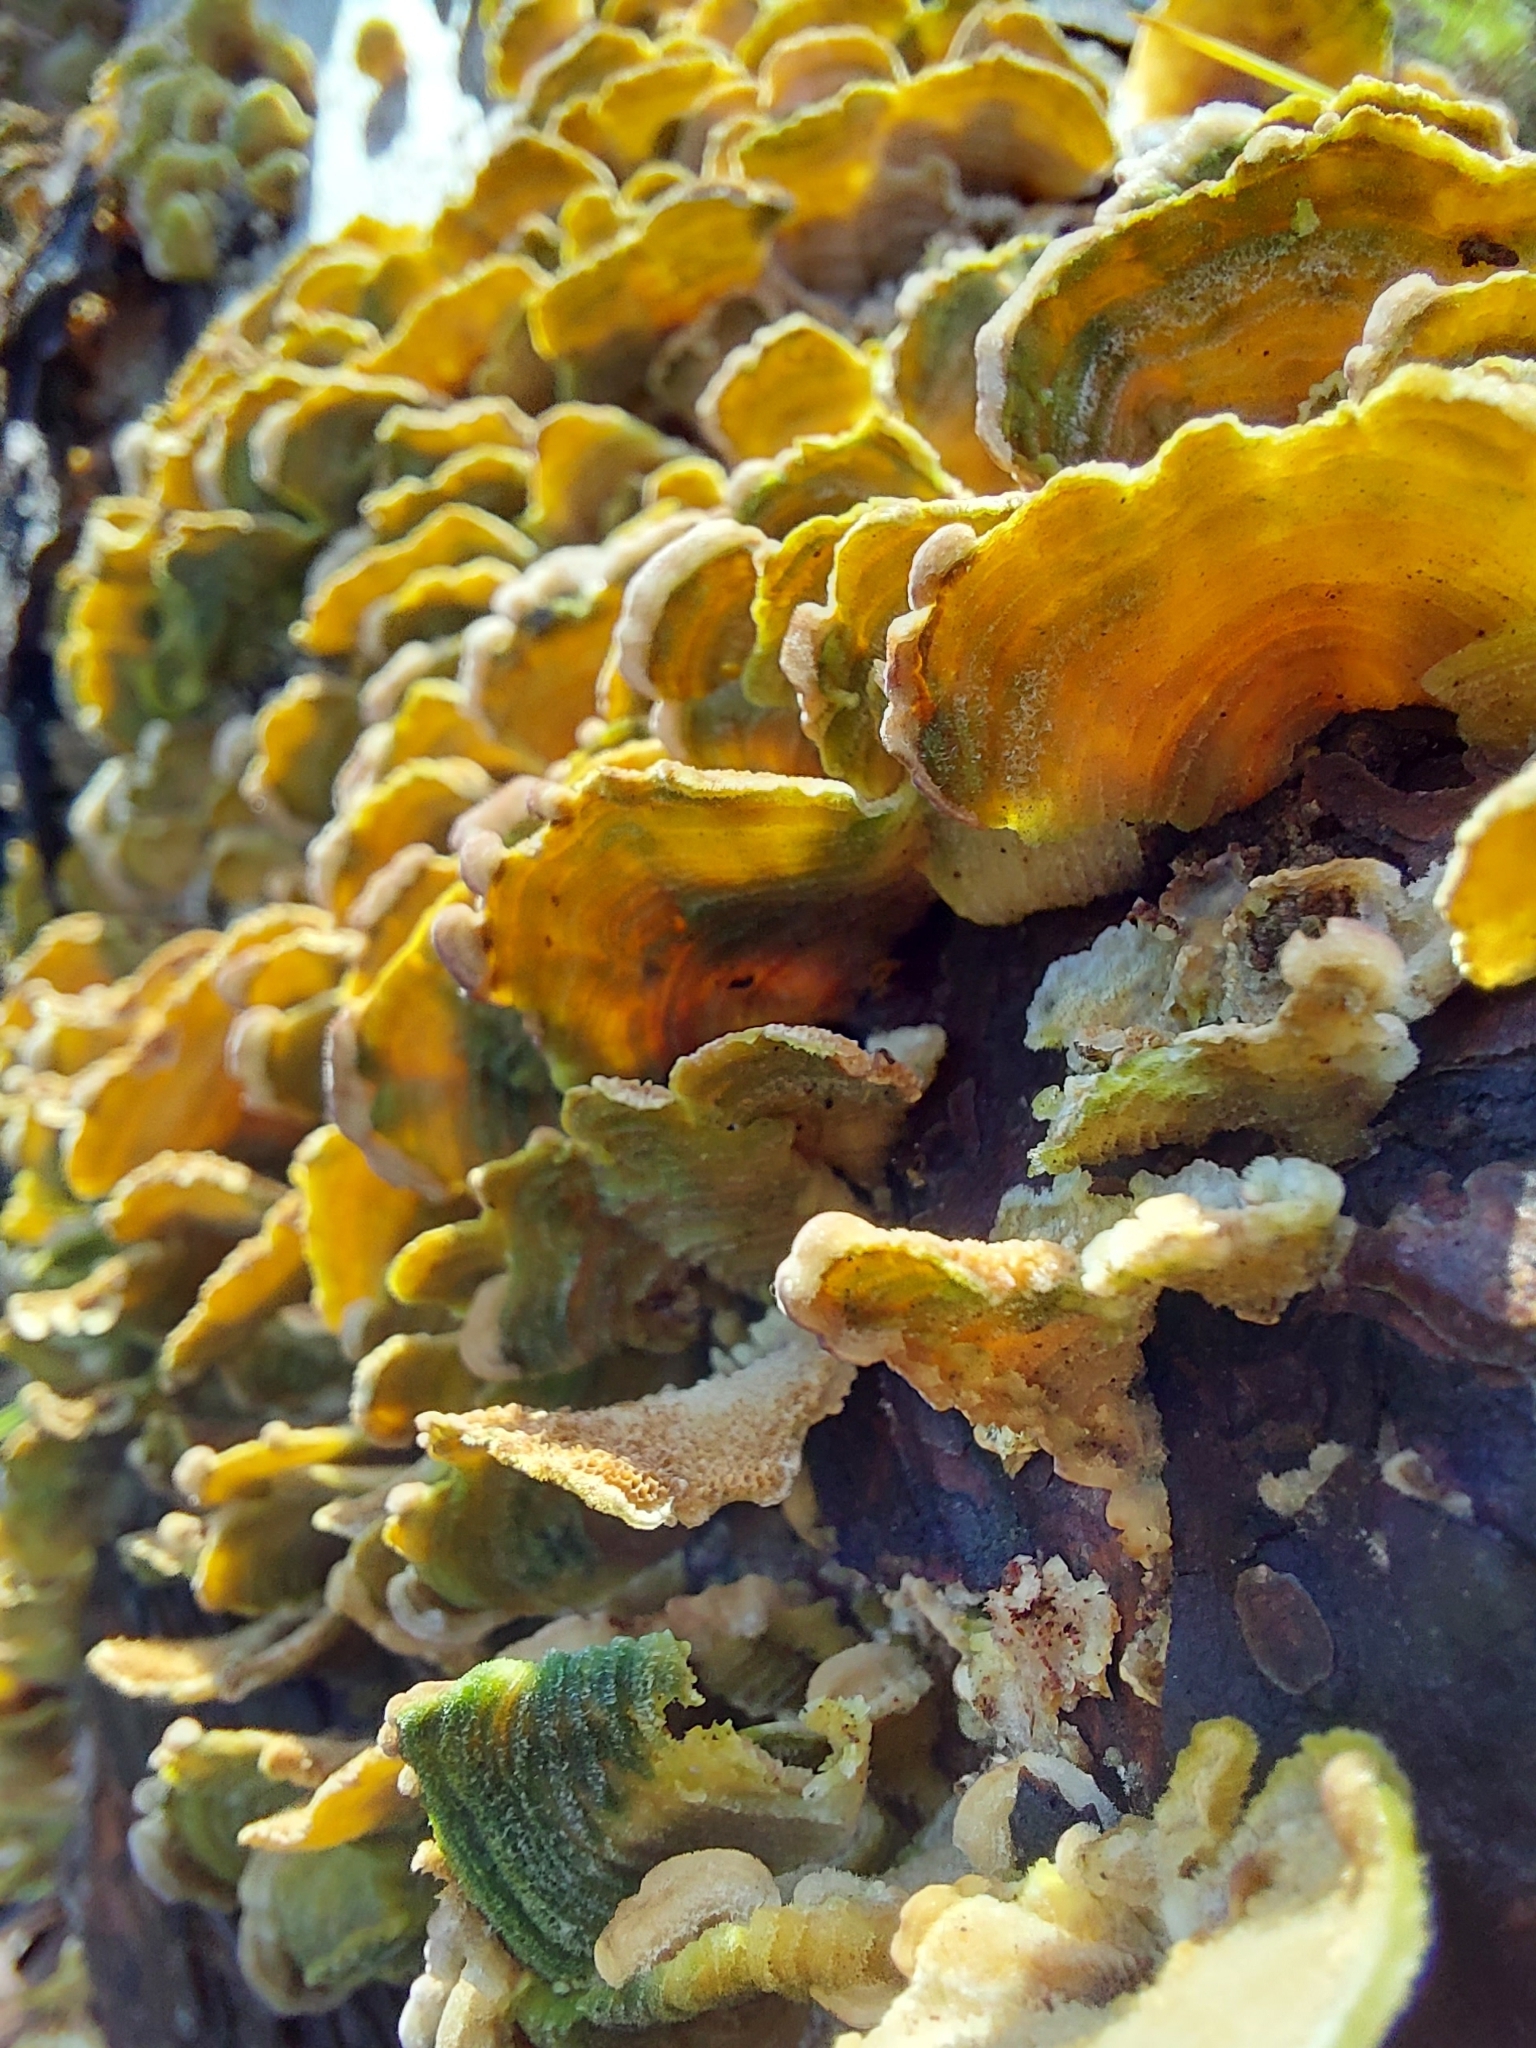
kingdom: Fungi
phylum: Basidiomycota
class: Agaricomycetes
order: Russulales
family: Stereaceae
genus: Stereum
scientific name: Stereum complicatum
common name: Crowded parchment
